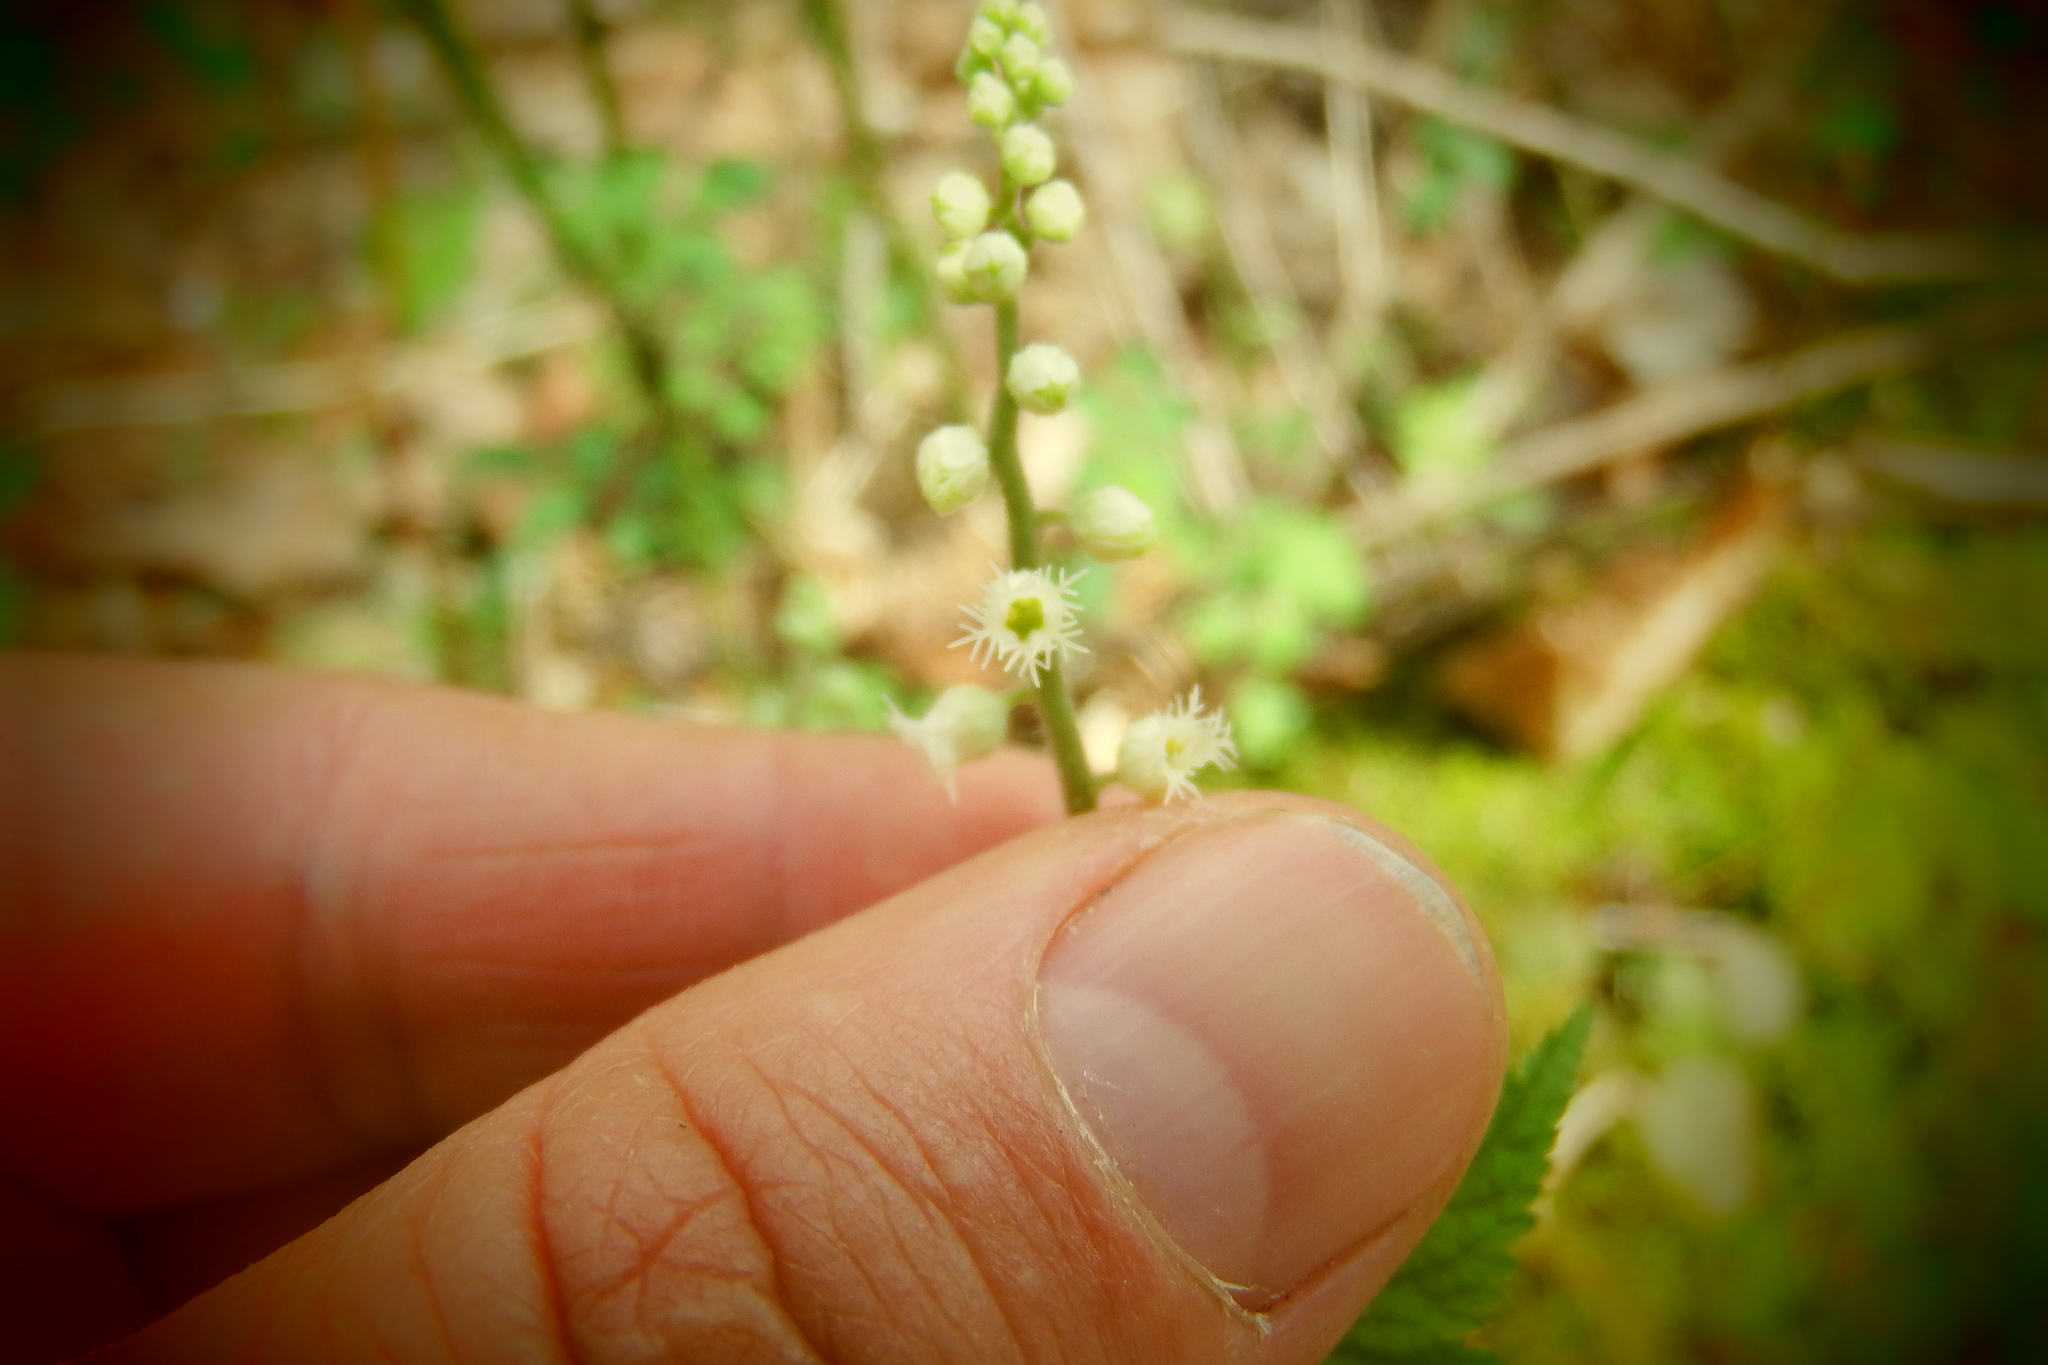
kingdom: Plantae
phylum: Tracheophyta
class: Magnoliopsida
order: Saxifragales
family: Saxifragaceae
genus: Mitella
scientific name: Mitella diphylla
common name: Coolwort
